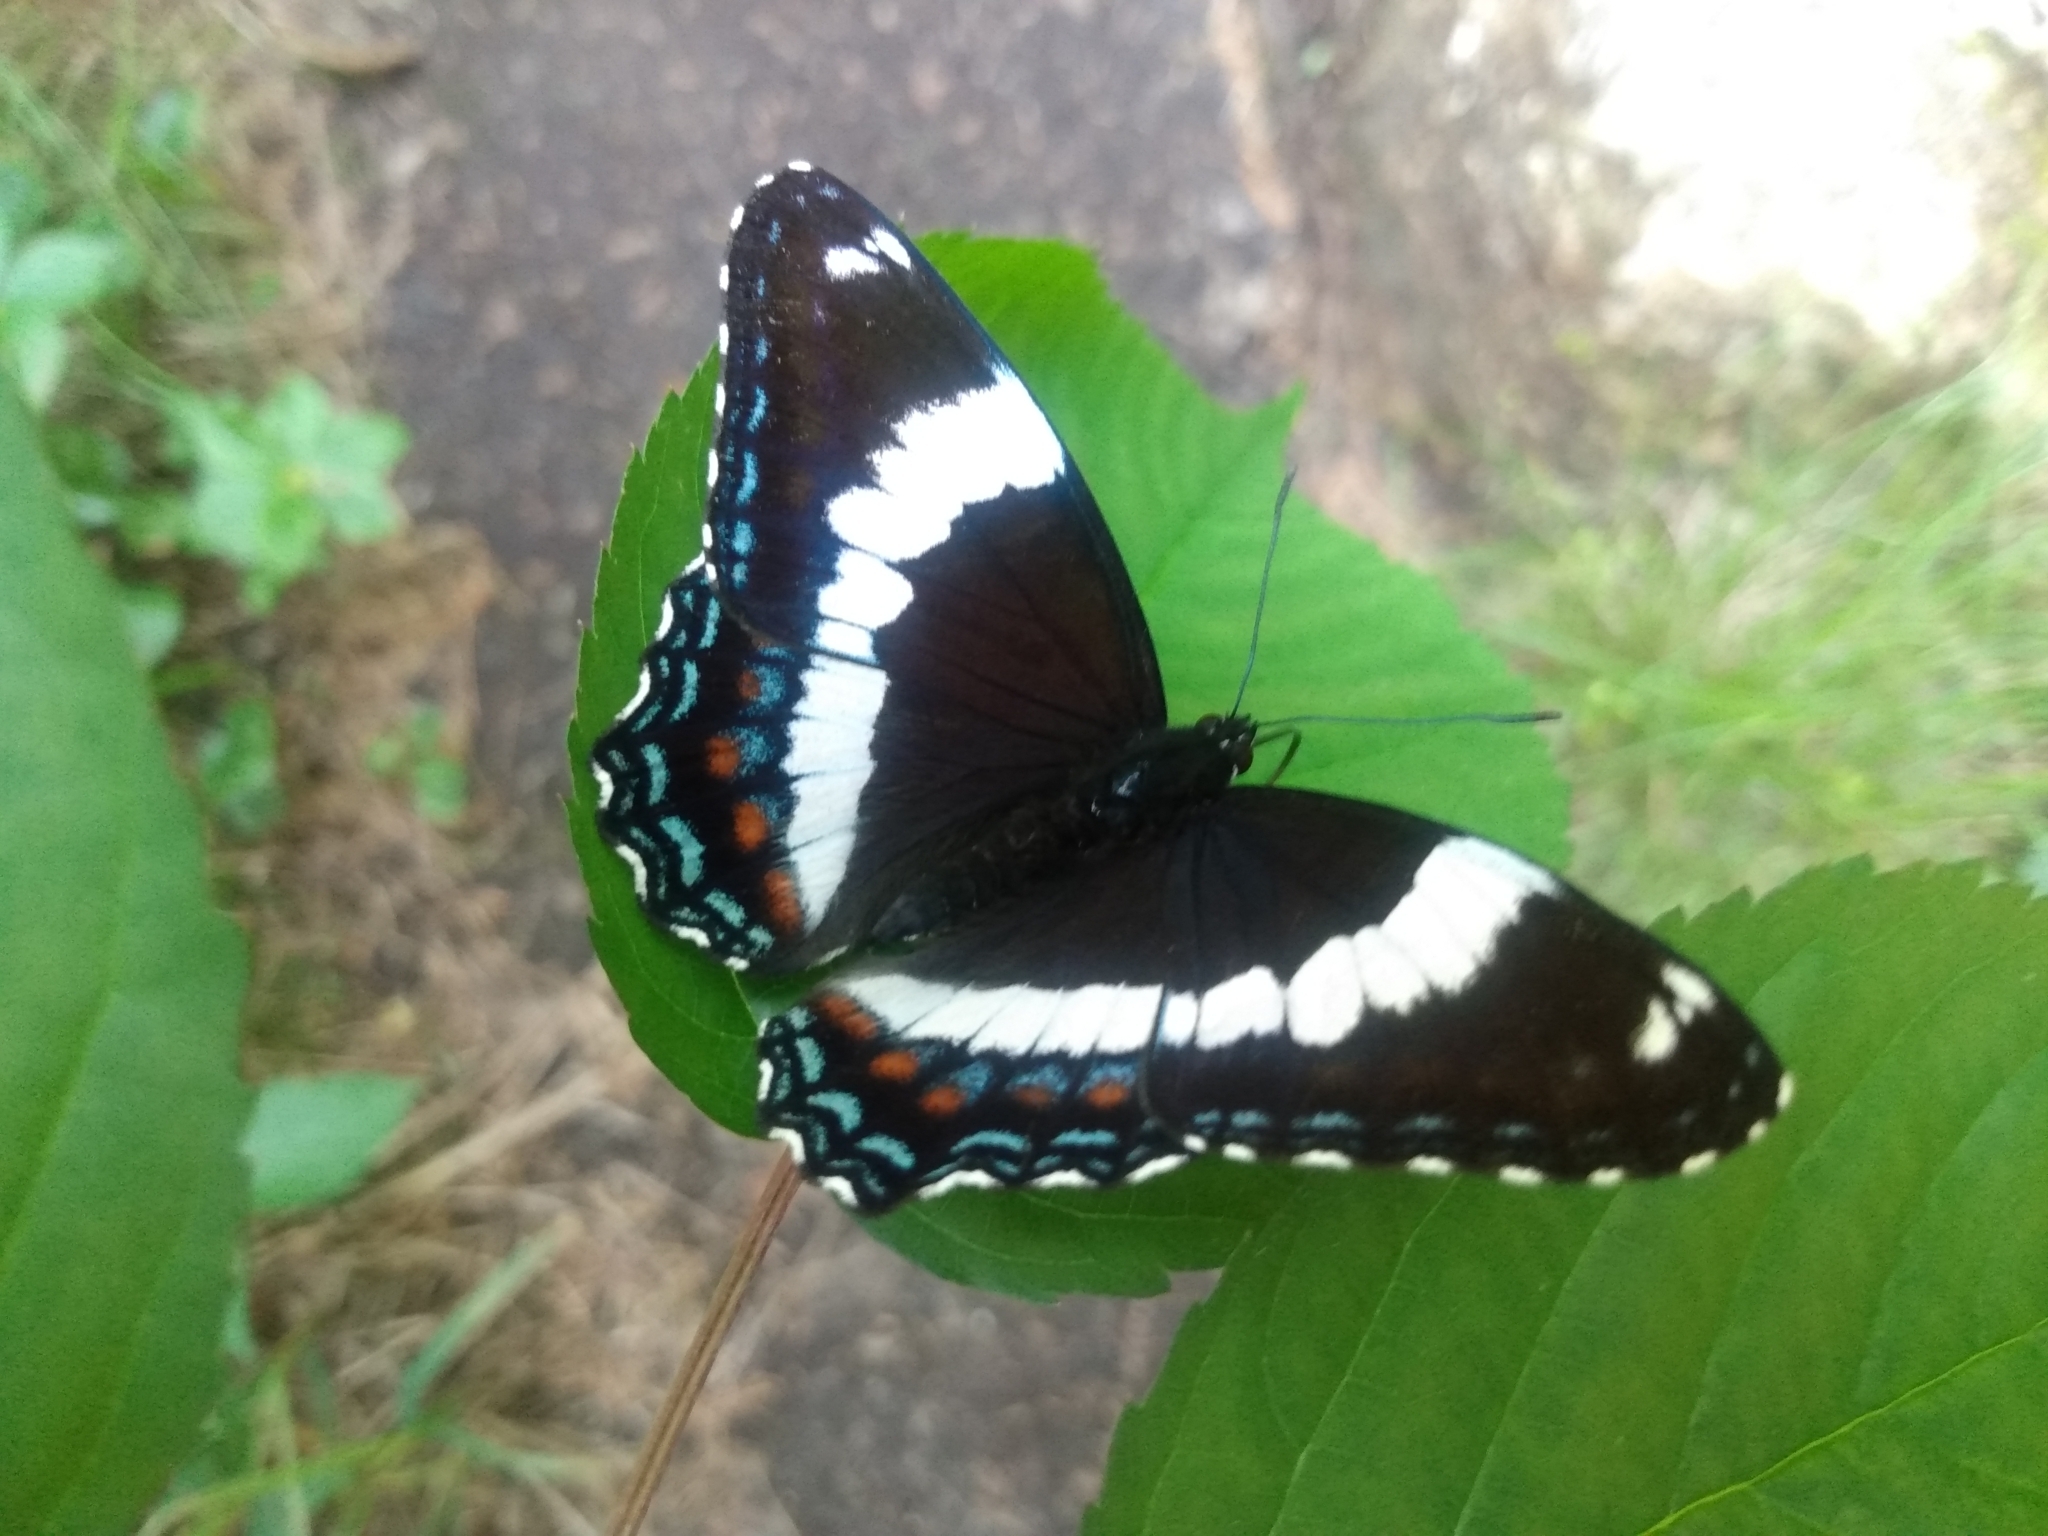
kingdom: Animalia
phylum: Arthropoda
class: Insecta
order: Lepidoptera
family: Nymphalidae
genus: Limenitis
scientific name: Limenitis arthemis
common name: Red-spotted admiral
